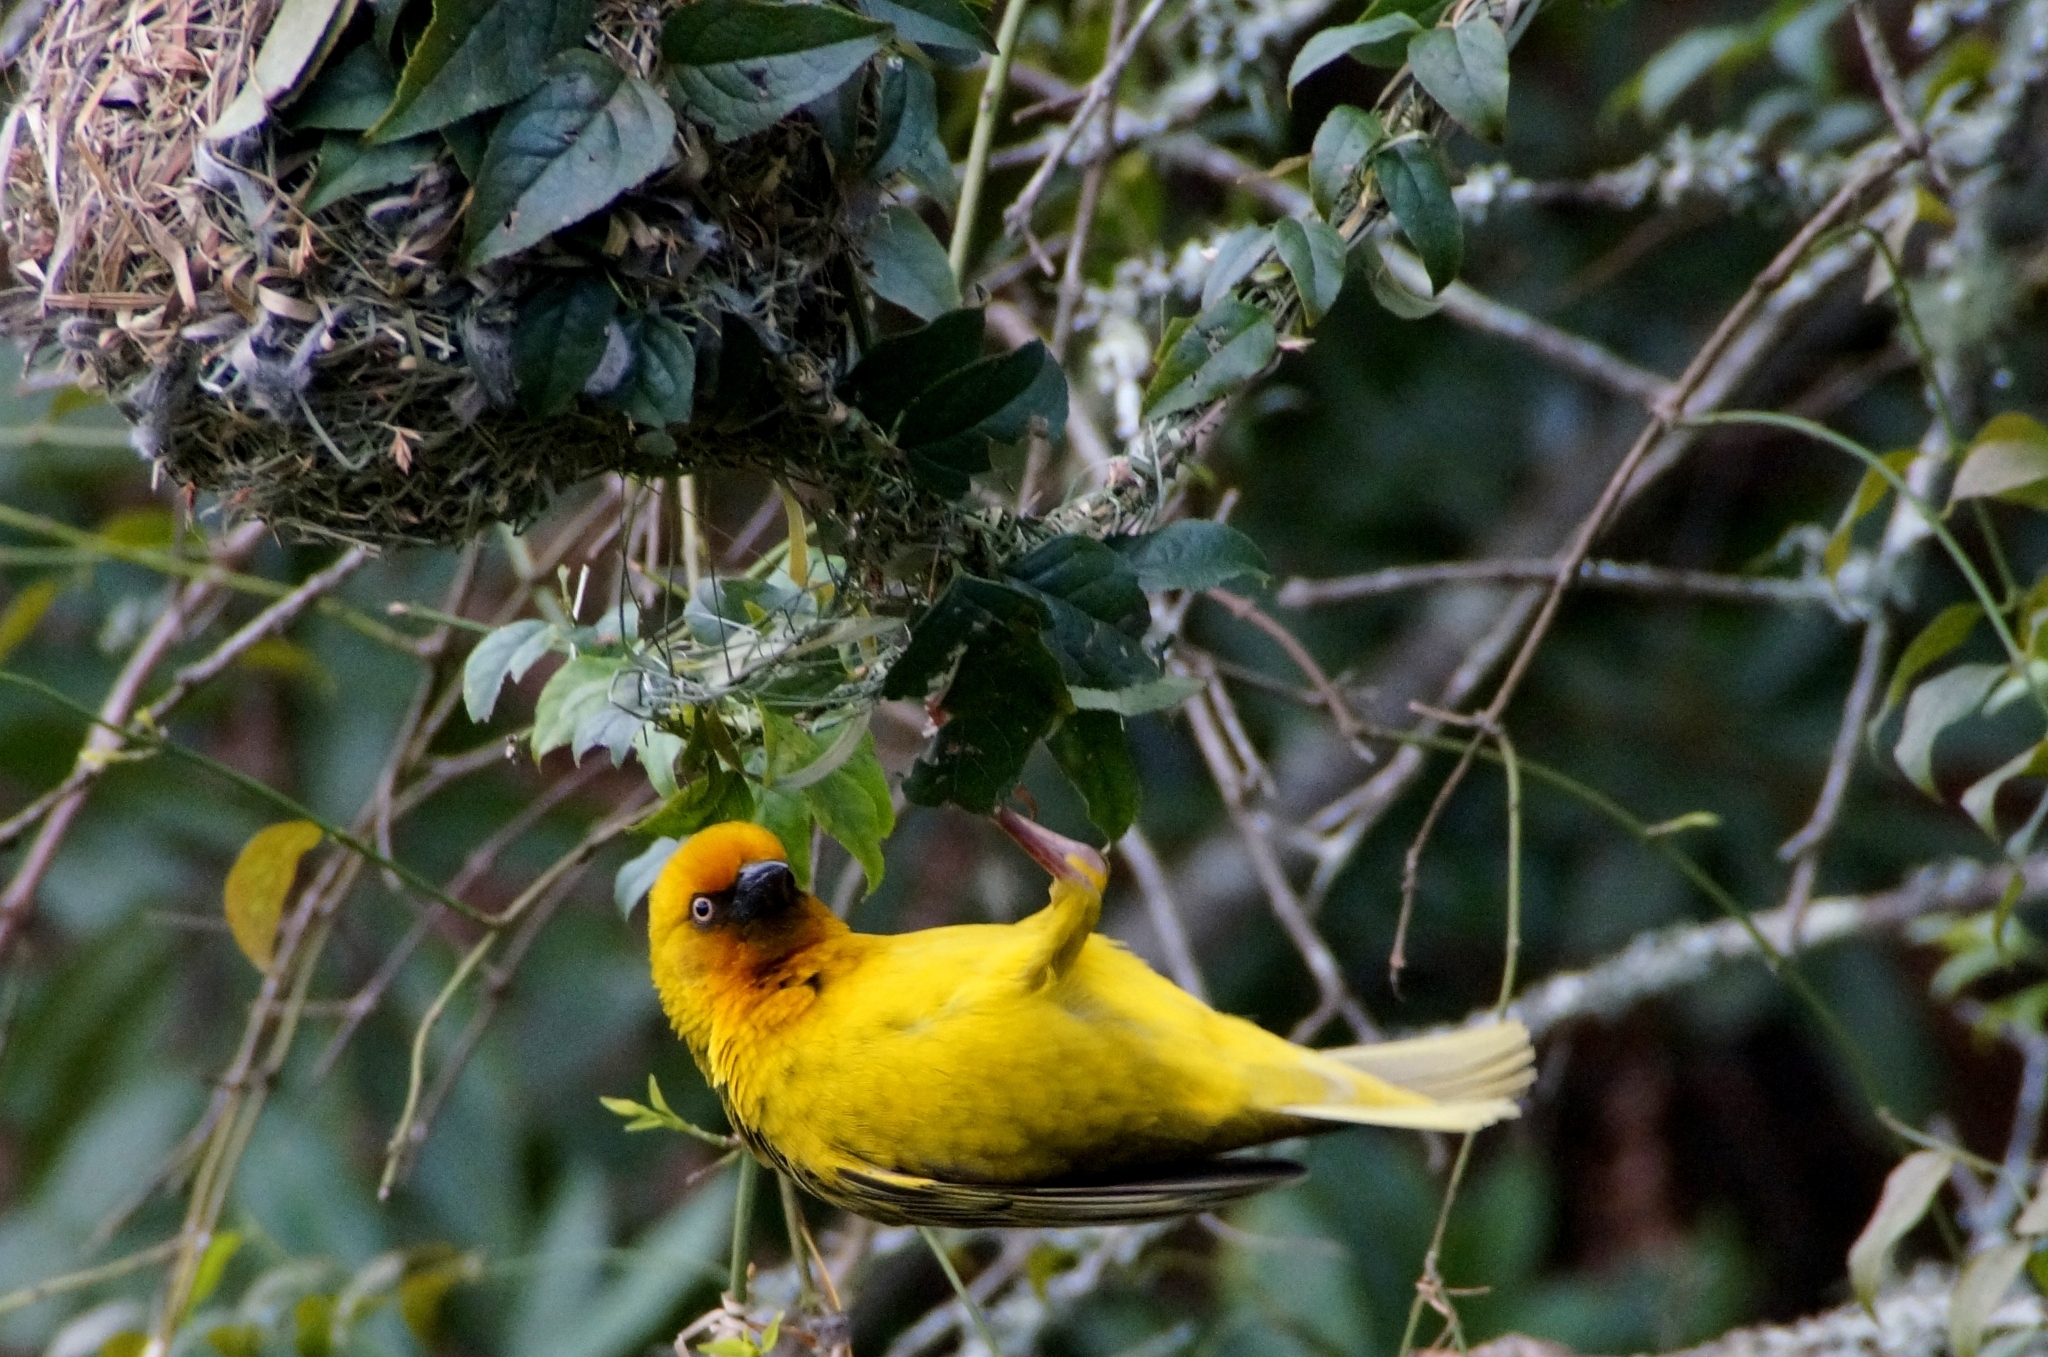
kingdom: Animalia
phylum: Chordata
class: Aves
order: Passeriformes
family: Ploceidae
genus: Ploceus
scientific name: Ploceus capensis
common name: Cape weaver
